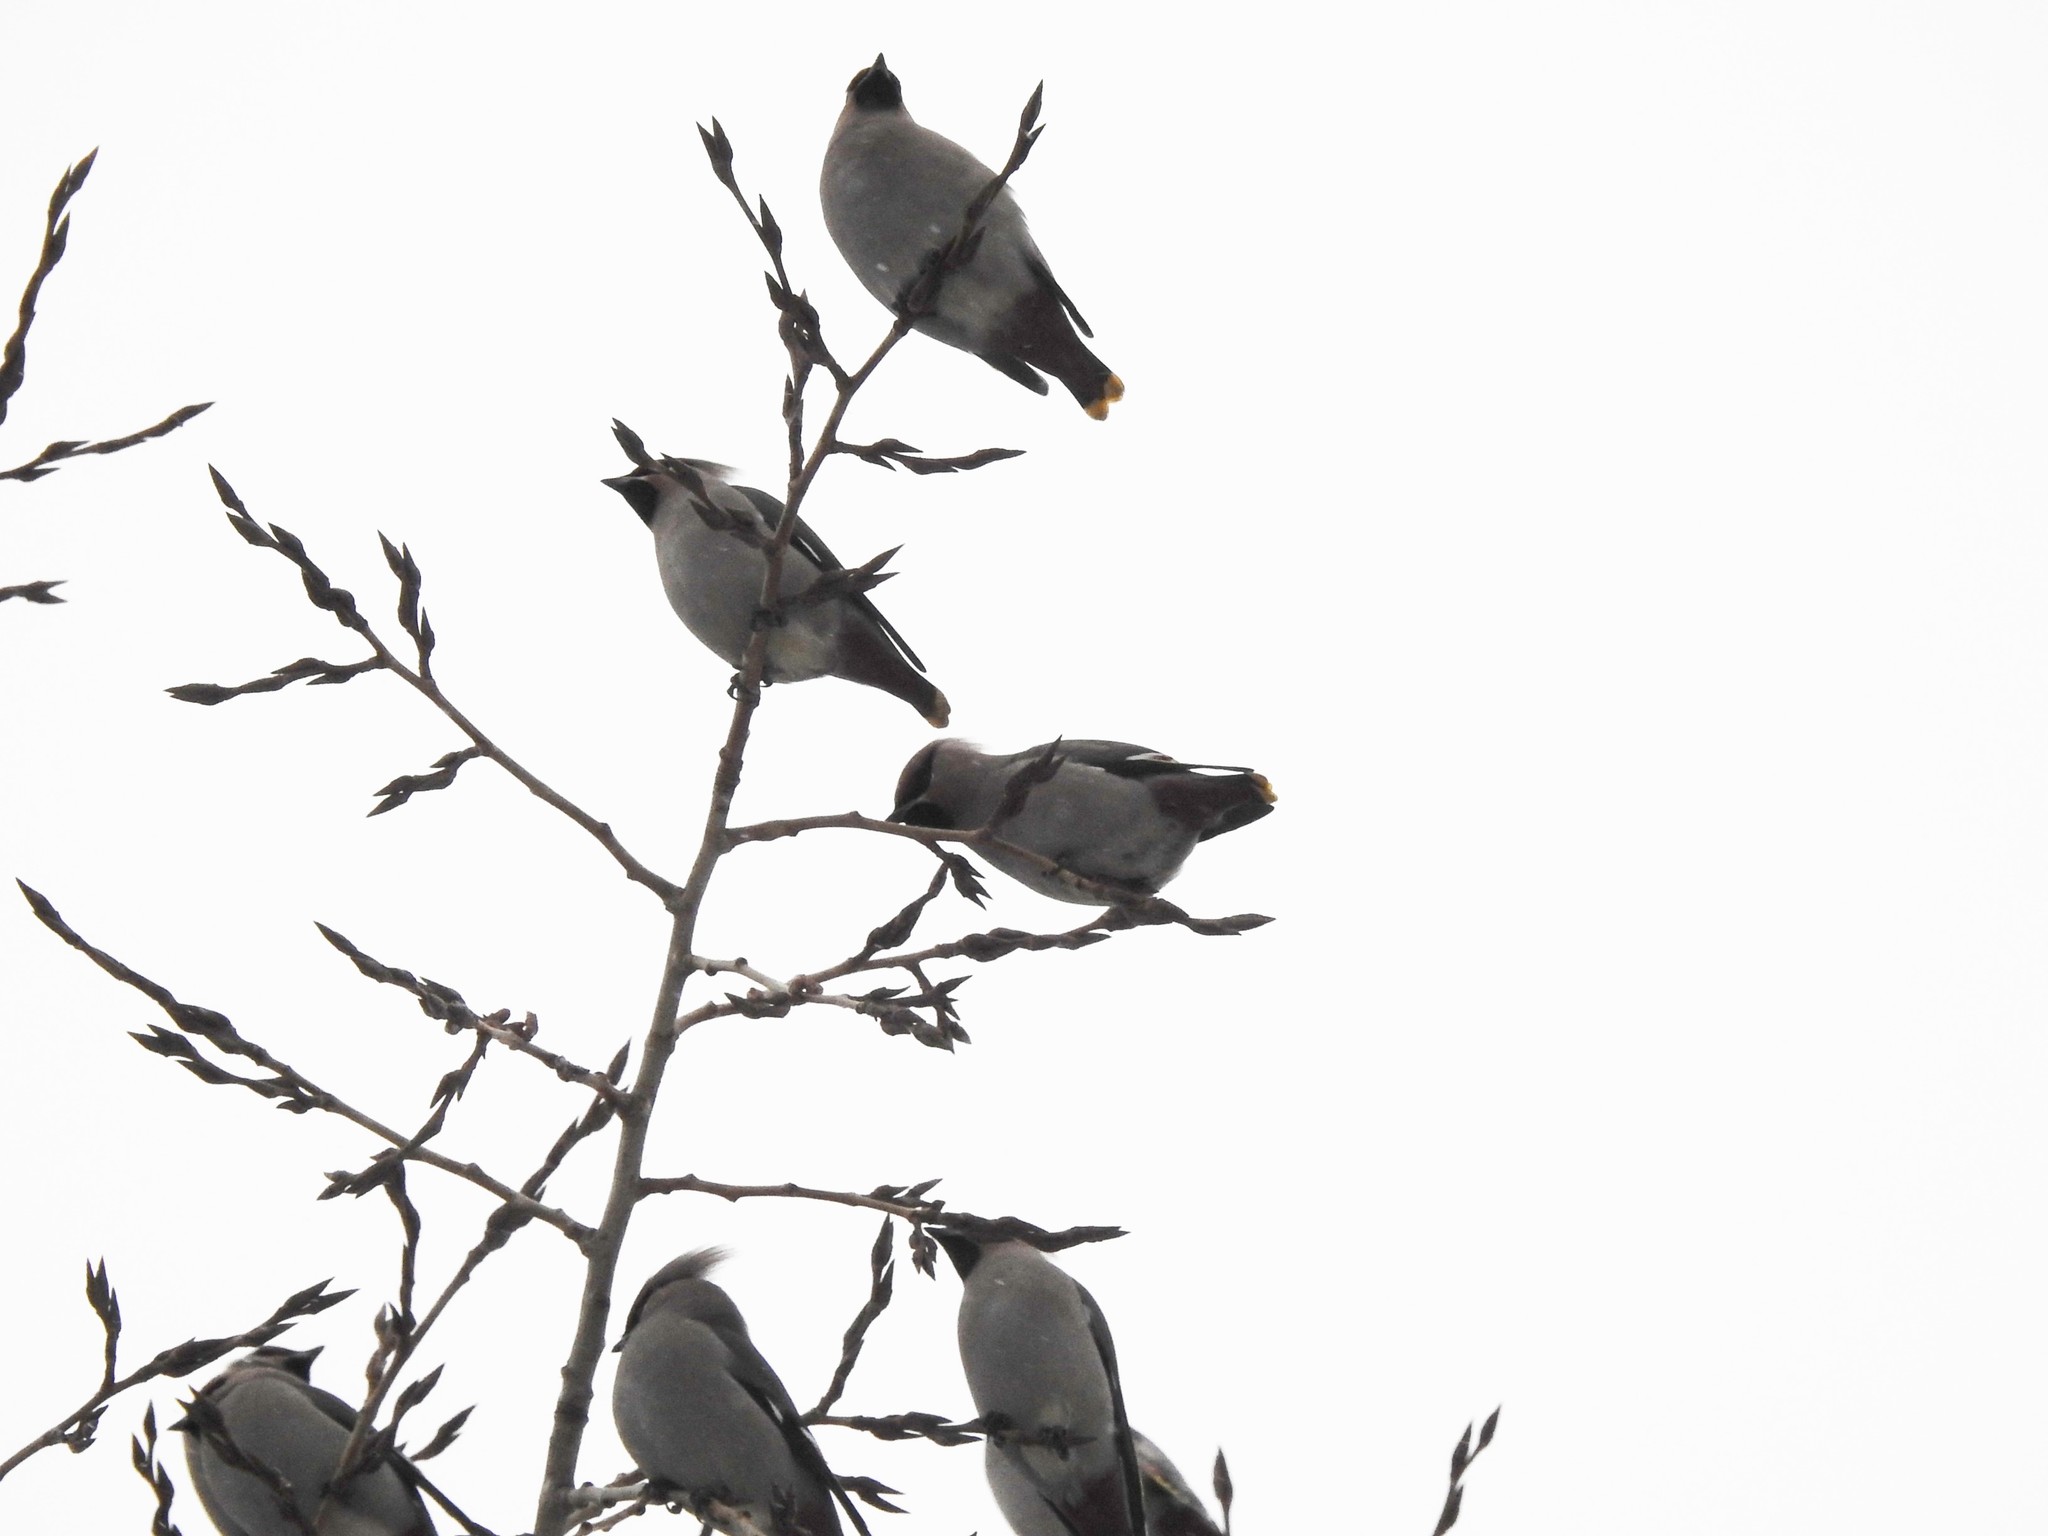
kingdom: Animalia
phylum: Chordata
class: Aves
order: Passeriformes
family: Bombycillidae
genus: Bombycilla
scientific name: Bombycilla garrulus
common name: Bohemian waxwing
